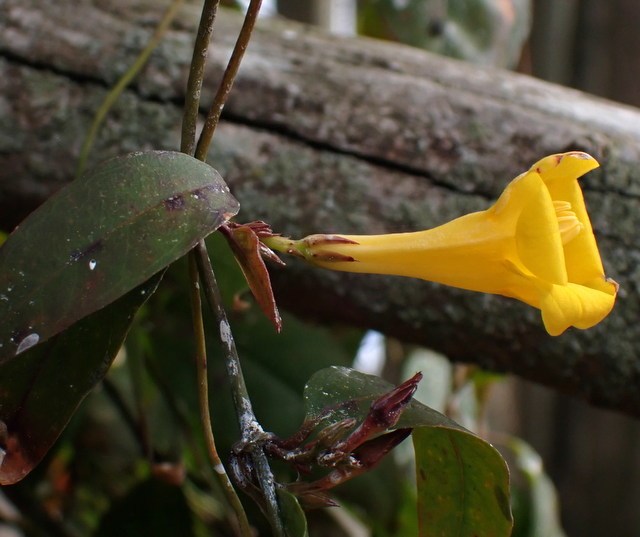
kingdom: Plantae
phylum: Tracheophyta
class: Magnoliopsida
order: Gentianales
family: Gelsemiaceae
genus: Gelsemium
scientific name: Gelsemium rankinii
